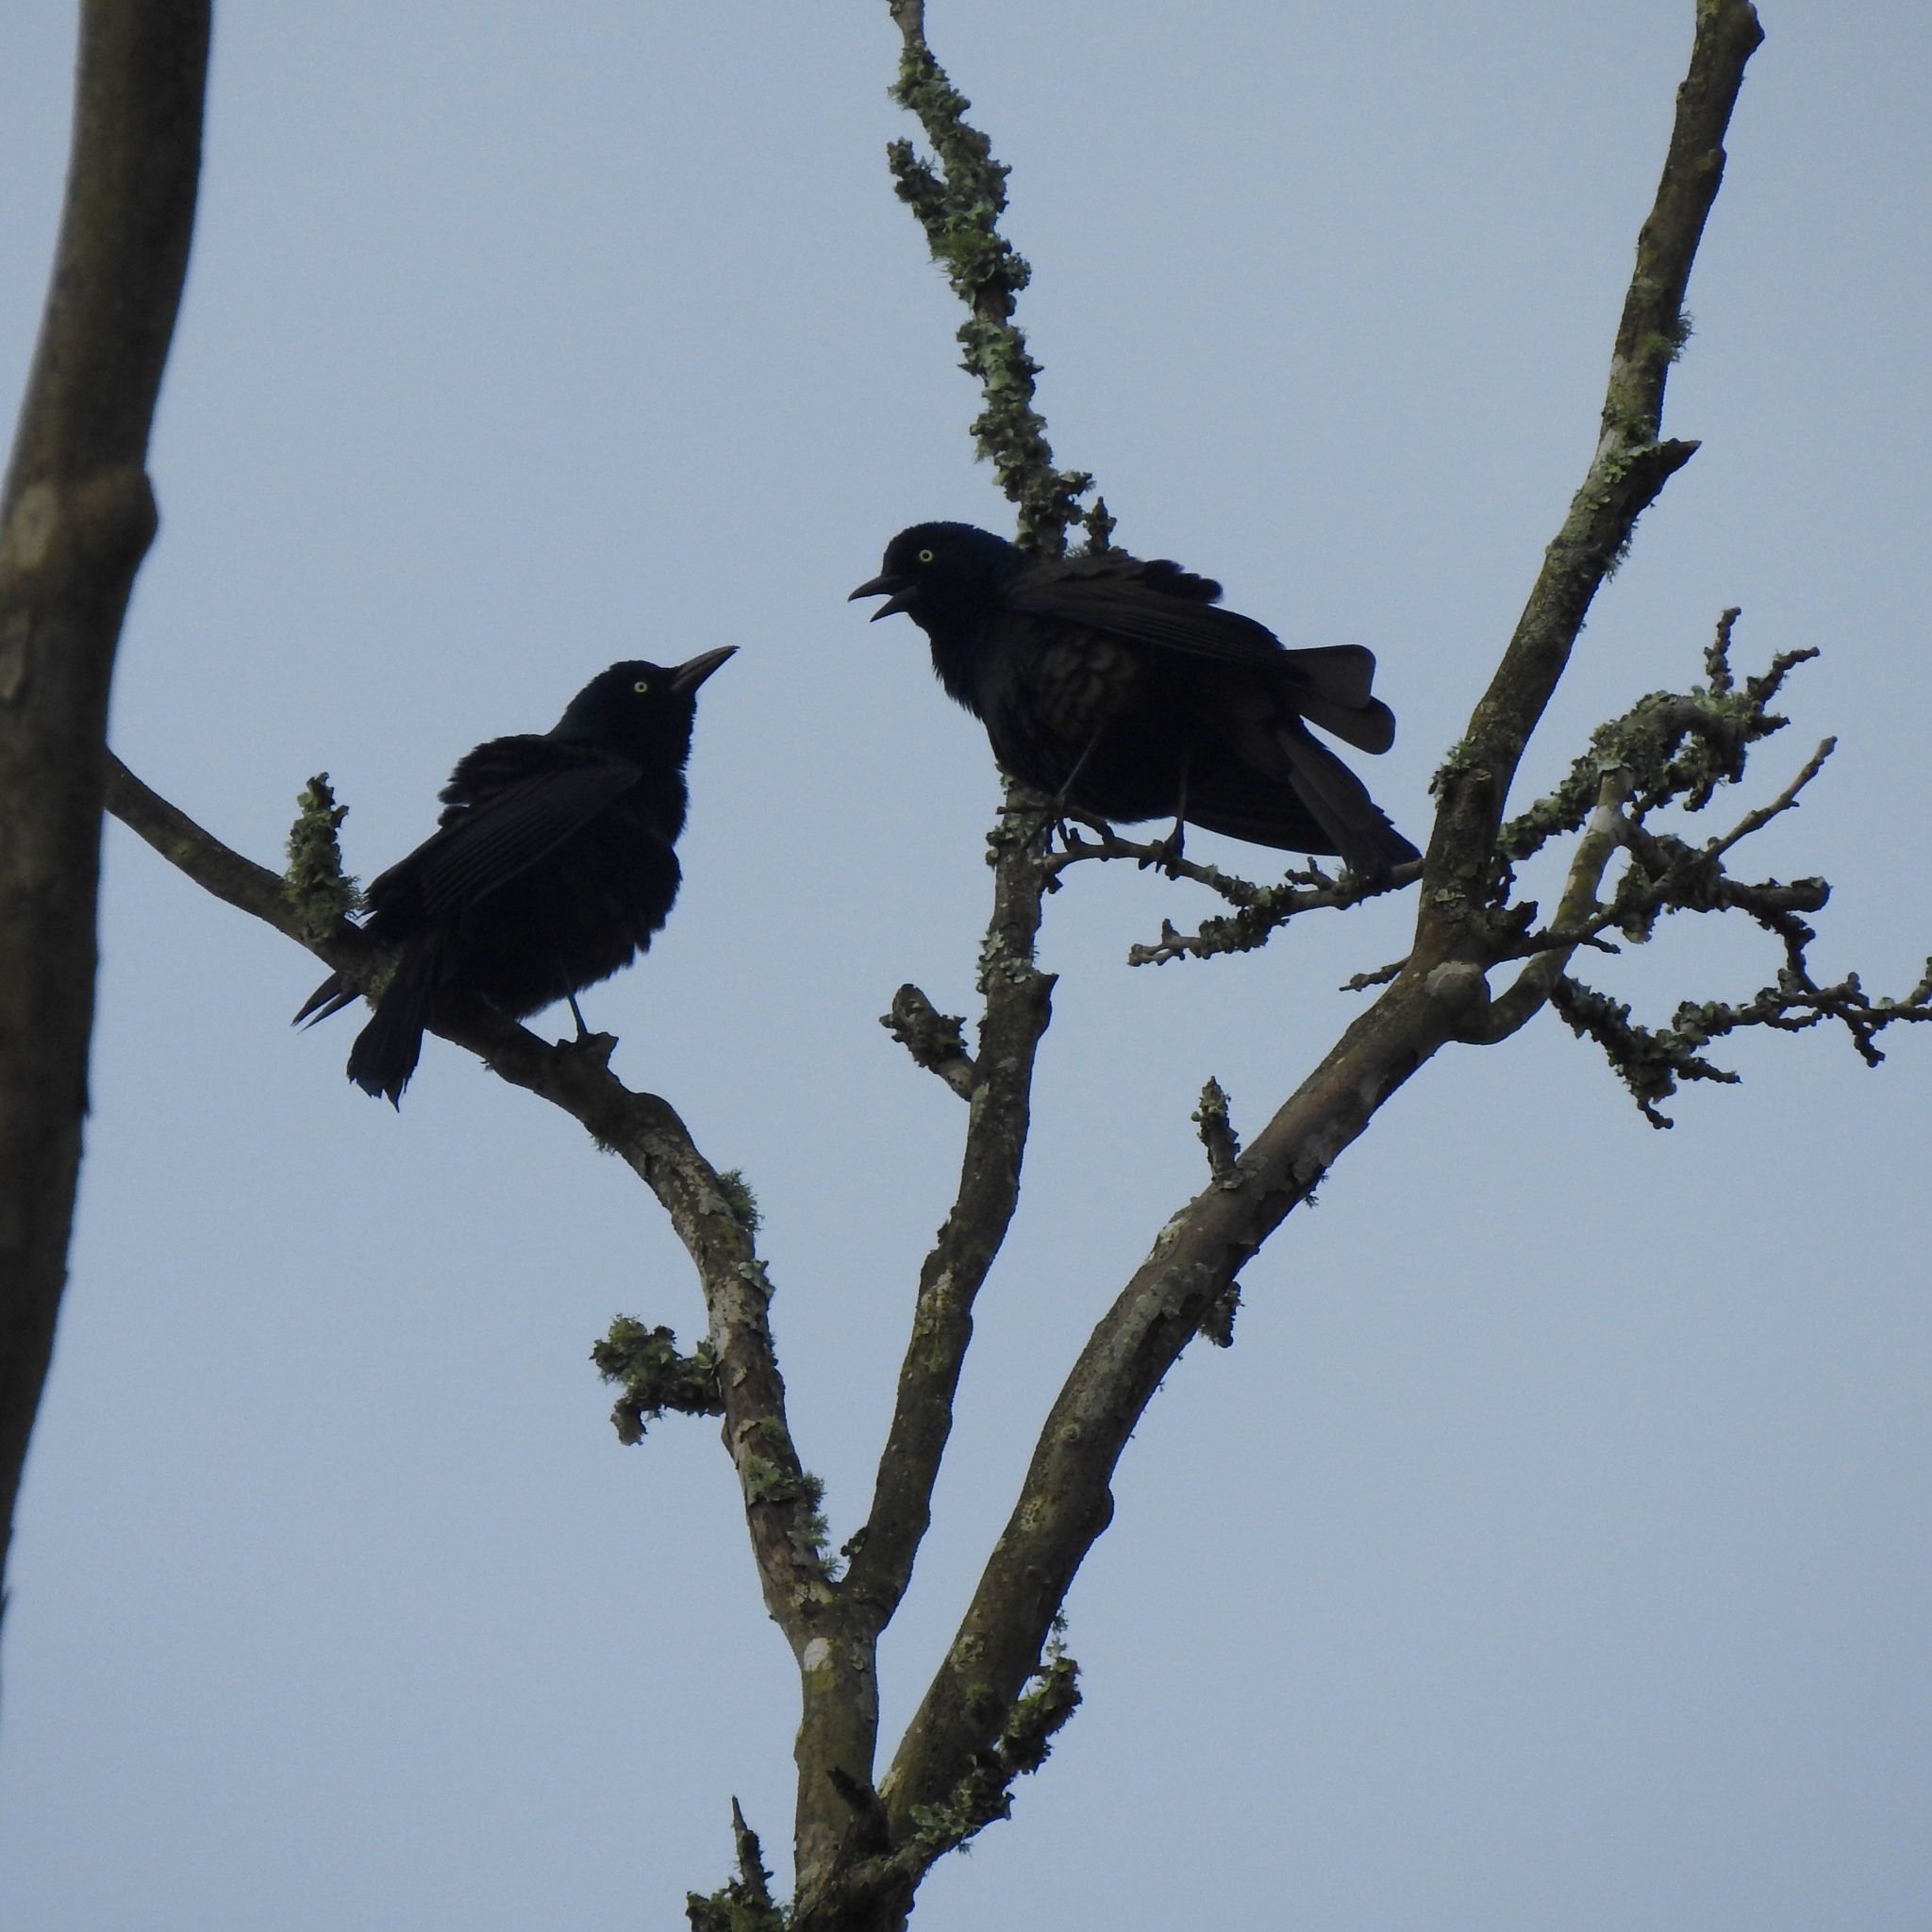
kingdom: Animalia
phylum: Chordata
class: Aves
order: Passeriformes
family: Icteridae
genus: Quiscalus
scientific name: Quiscalus quiscula
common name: Common grackle
